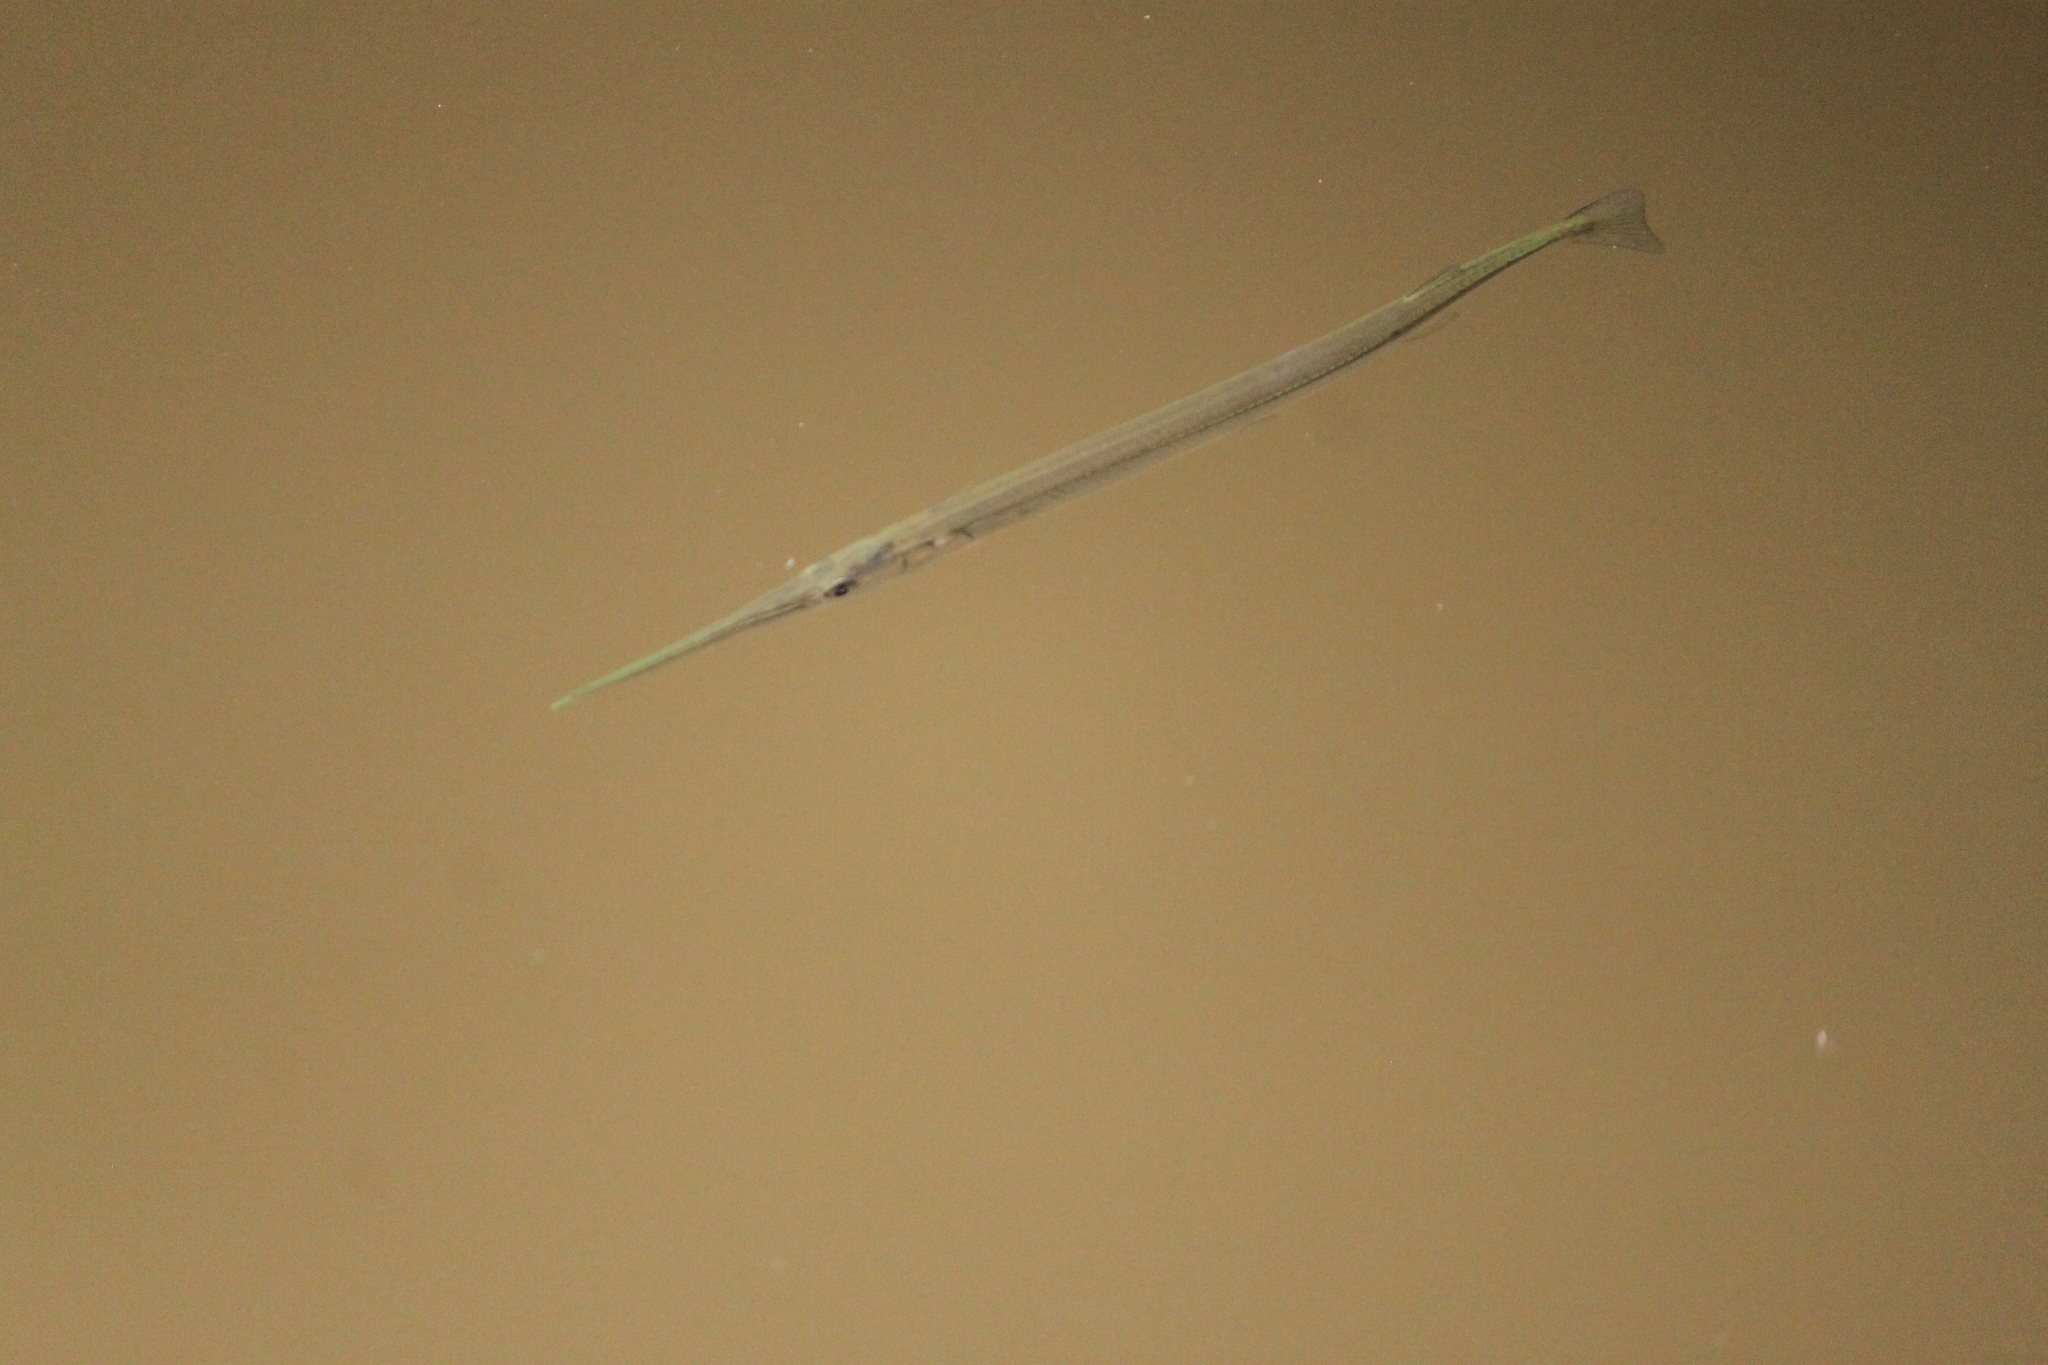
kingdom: Animalia
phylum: Chordata
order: Beloniformes
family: Belonidae
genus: Strongylura
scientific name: Strongylura marina
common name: Atlantic needlefish
